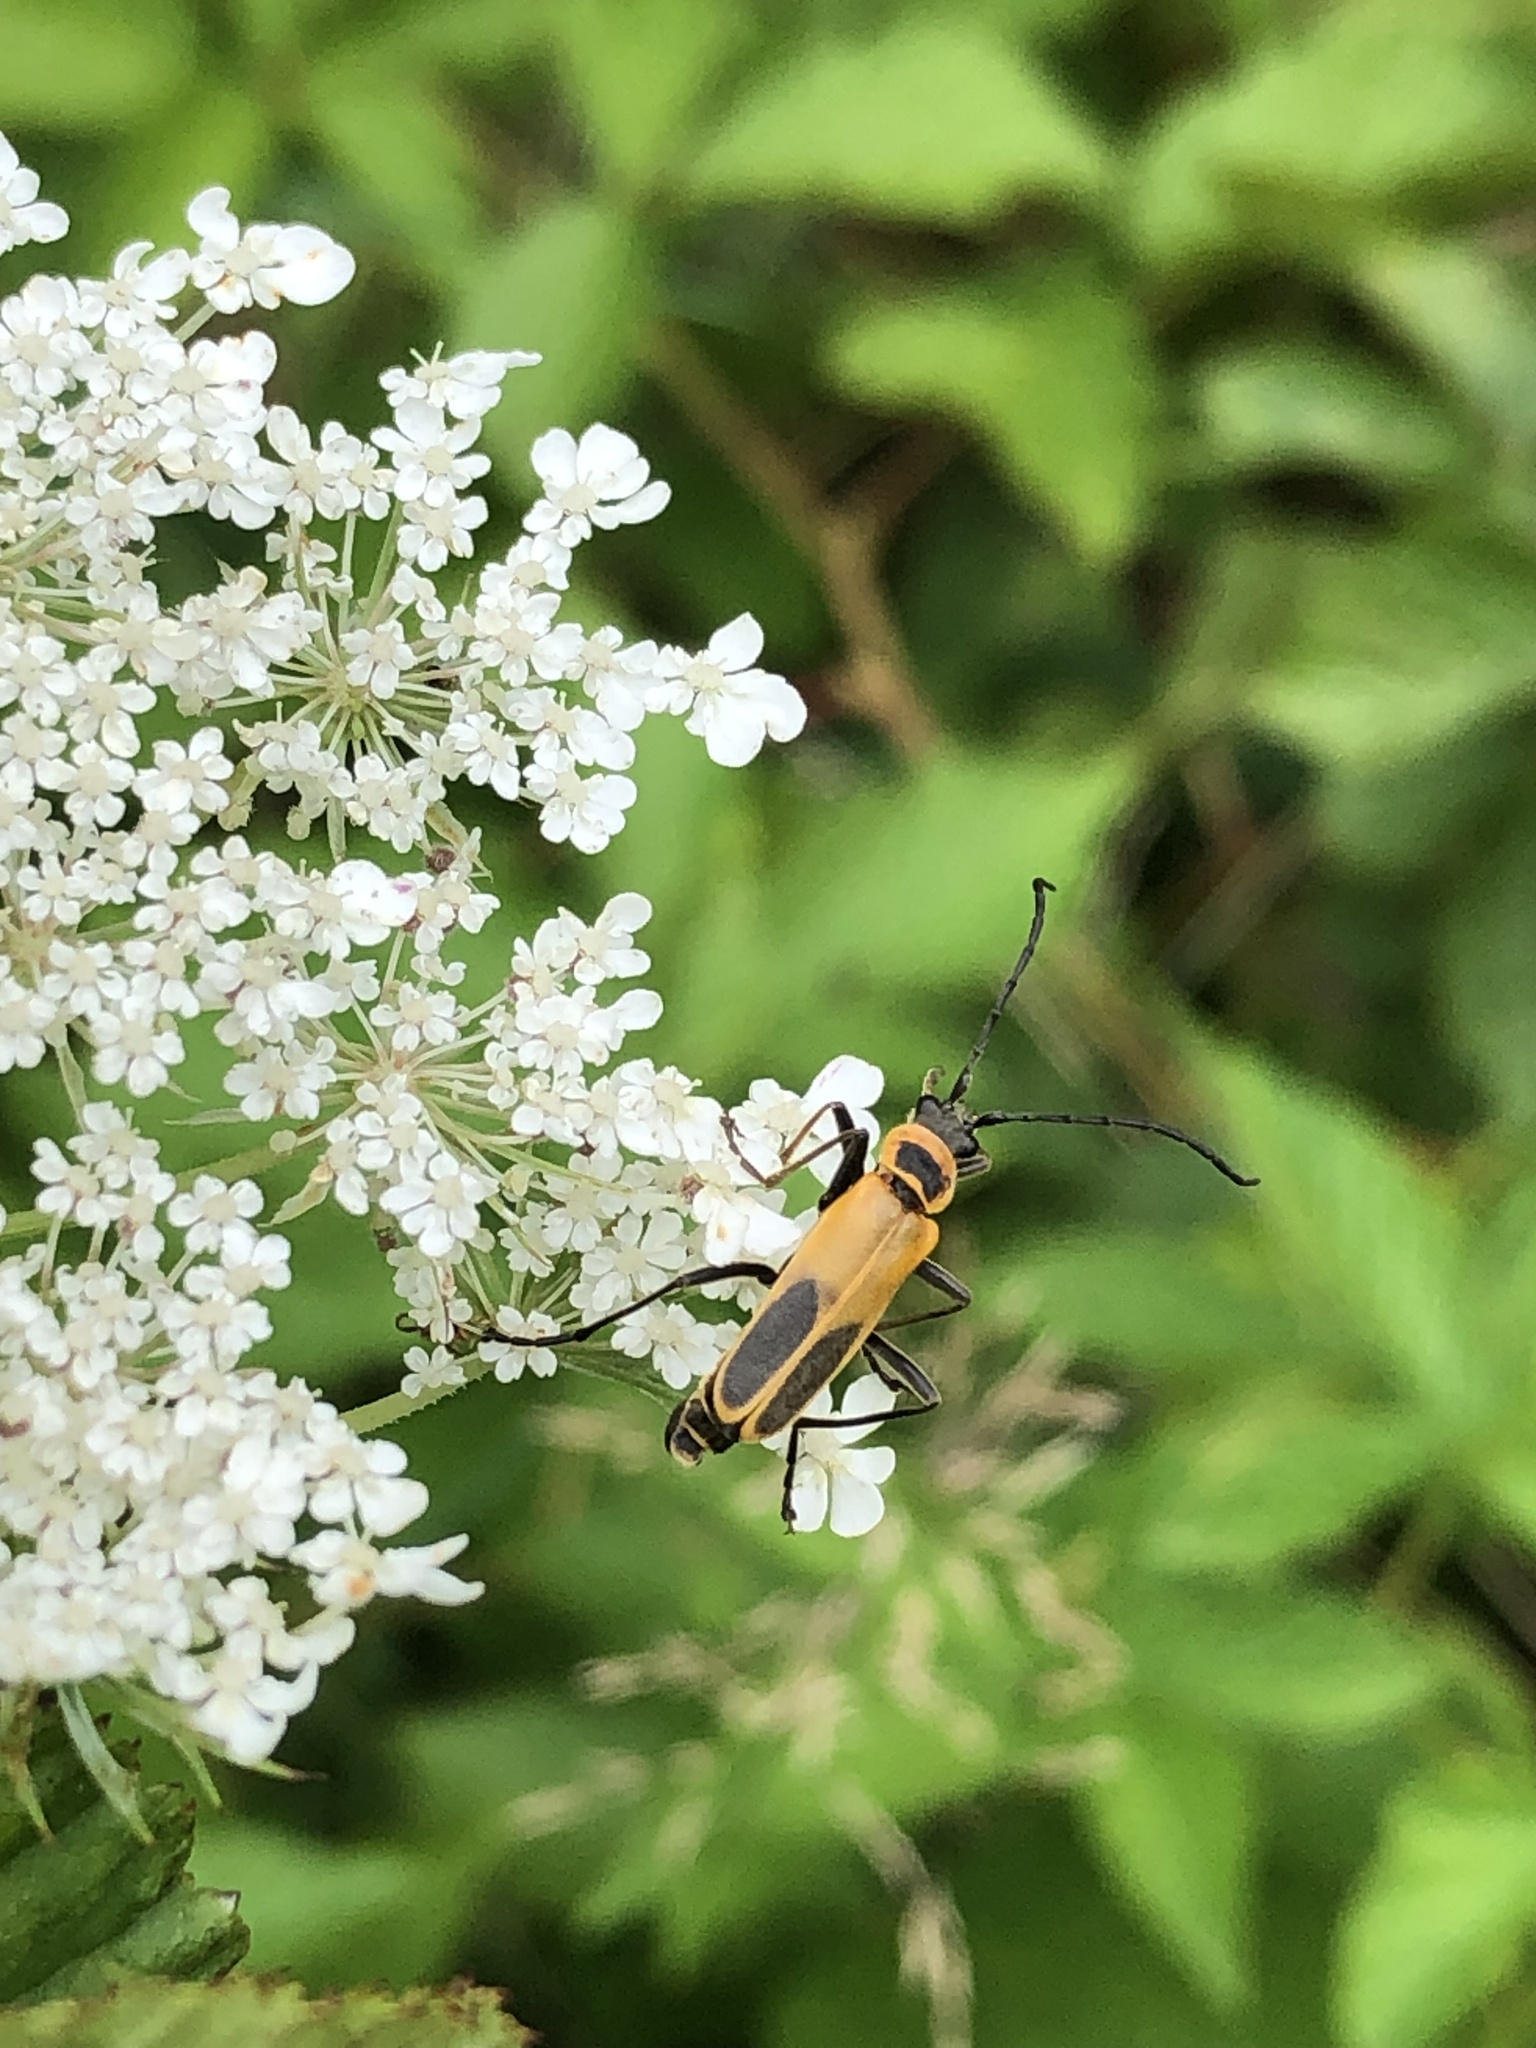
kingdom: Animalia
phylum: Arthropoda
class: Insecta
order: Coleoptera
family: Cantharidae
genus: Chauliognathus
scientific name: Chauliognathus pensylvanicus
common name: Goldenrod soldier beetle
